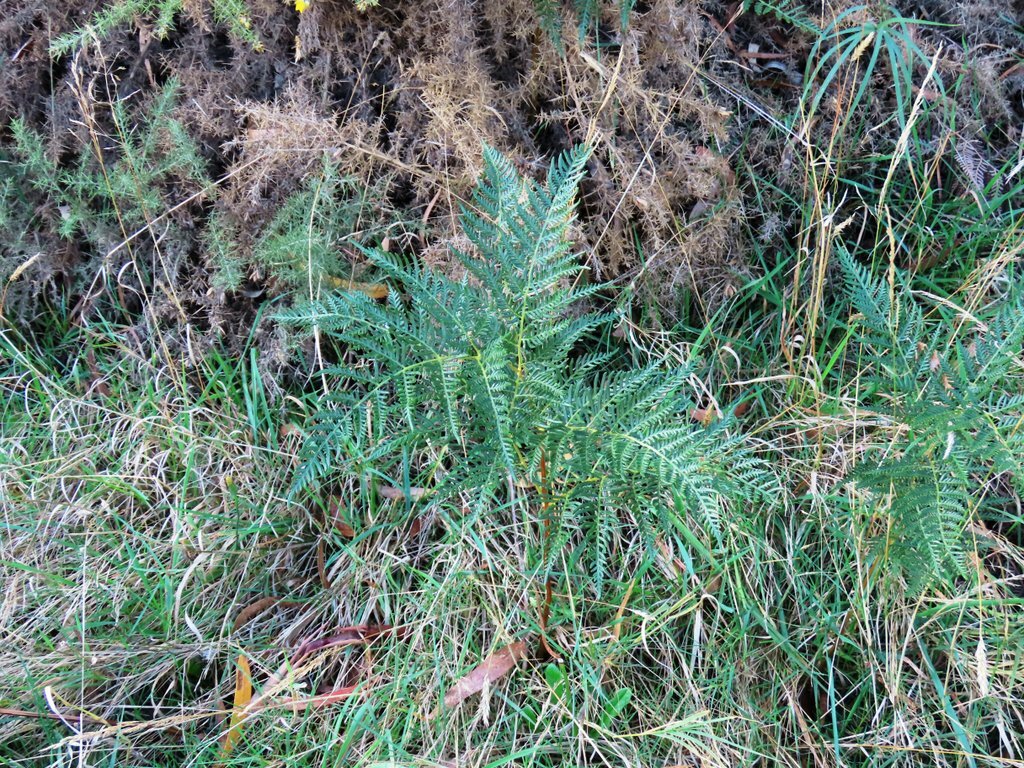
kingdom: Plantae
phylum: Tracheophyta
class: Polypodiopsida
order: Polypodiales
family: Dennstaedtiaceae
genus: Pteridium
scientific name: Pteridium esculentum
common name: Bracken fern
